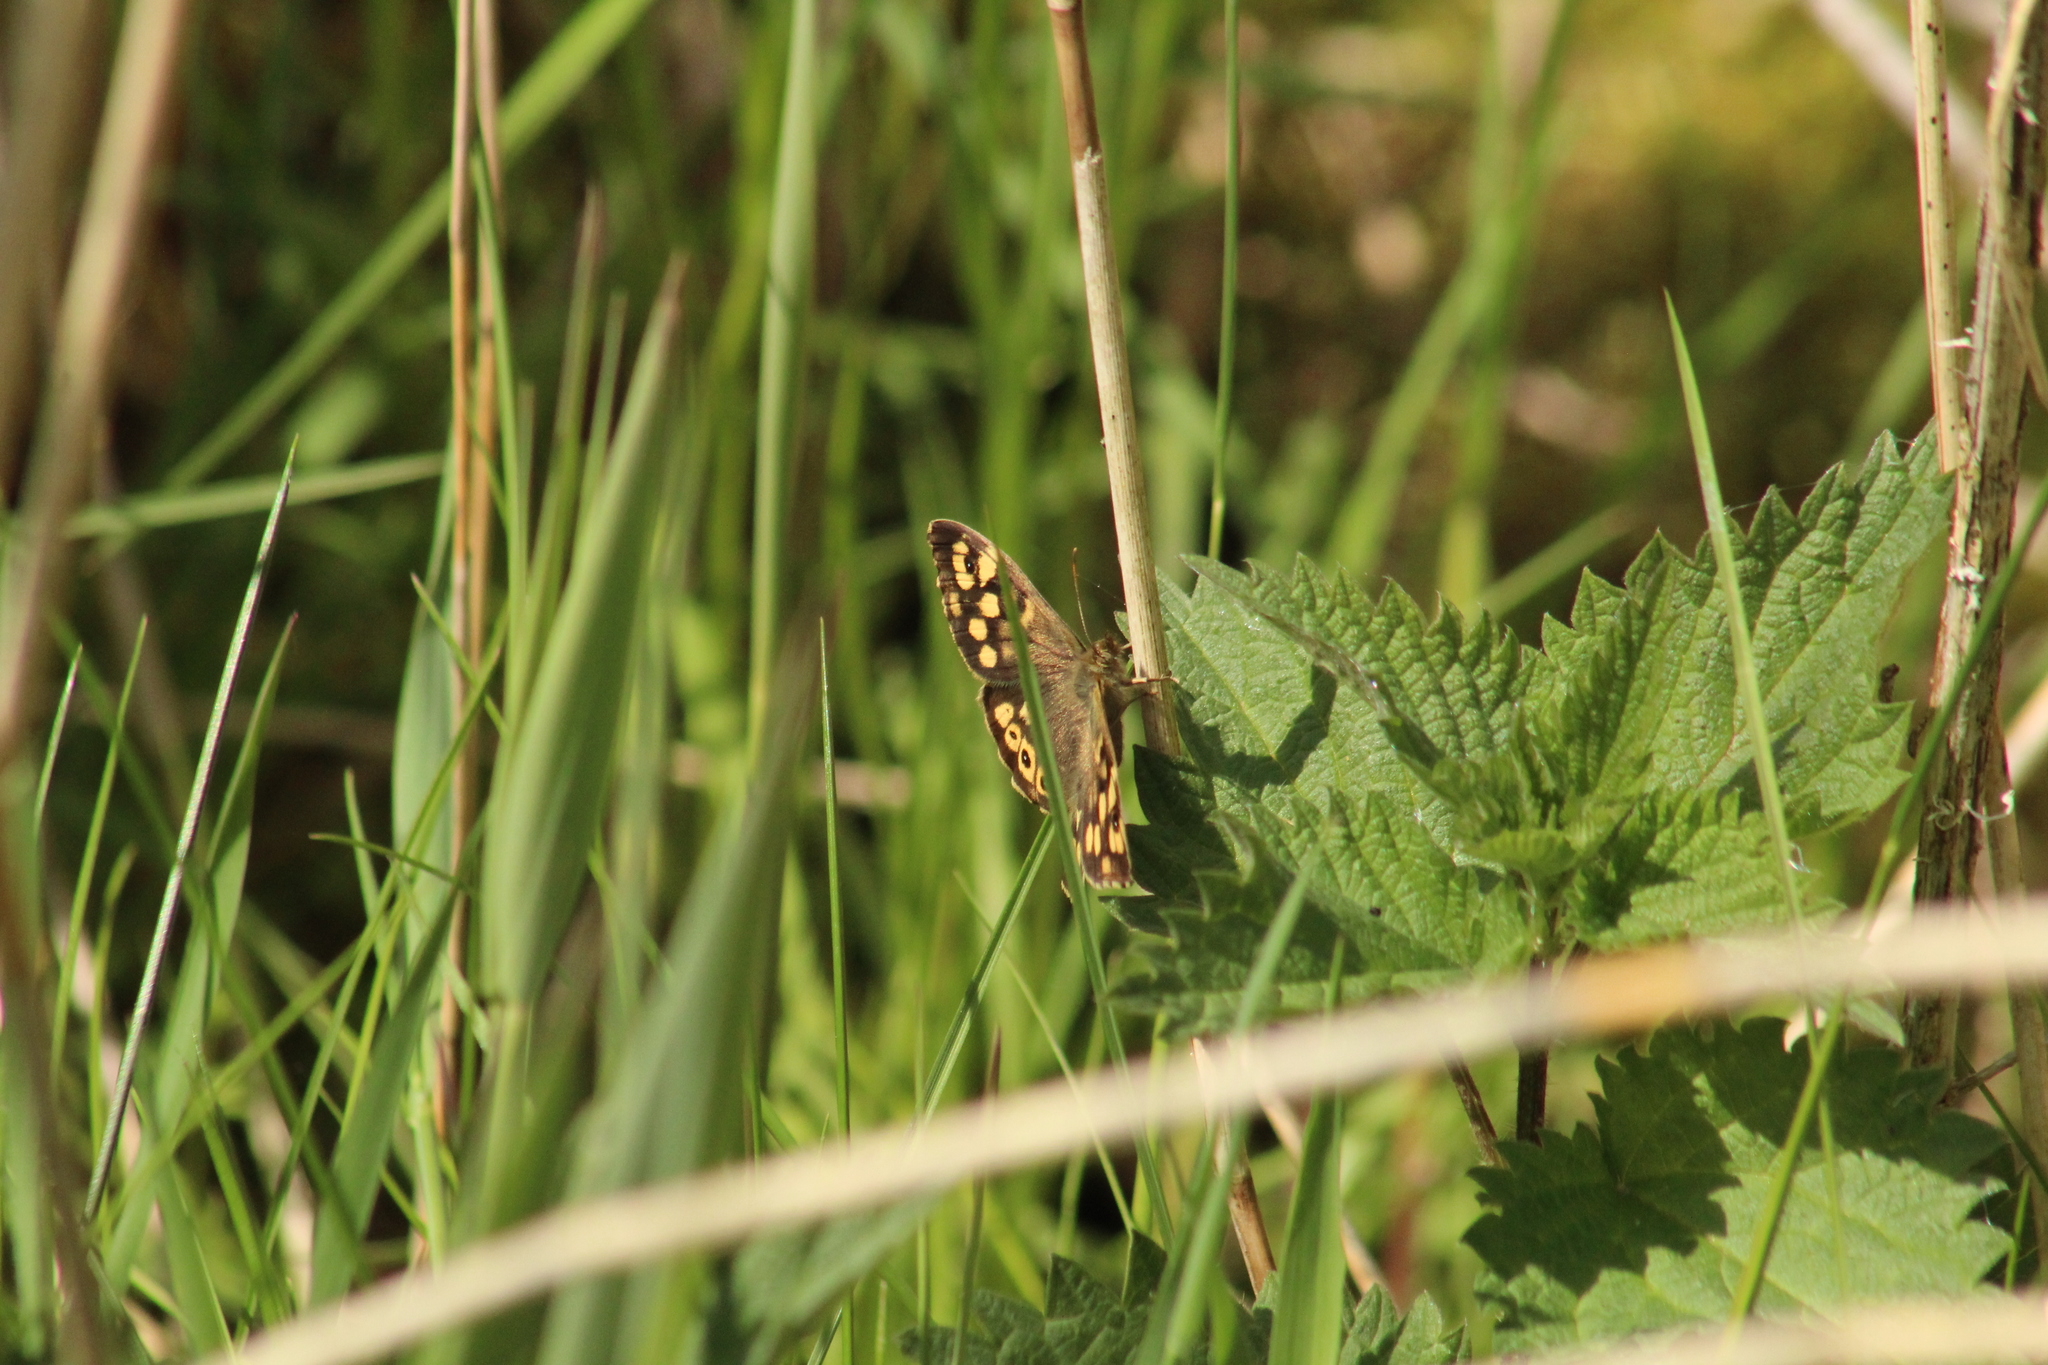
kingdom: Animalia
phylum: Arthropoda
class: Insecta
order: Lepidoptera
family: Nymphalidae
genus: Pararge
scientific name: Pararge aegeria
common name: Speckled wood
